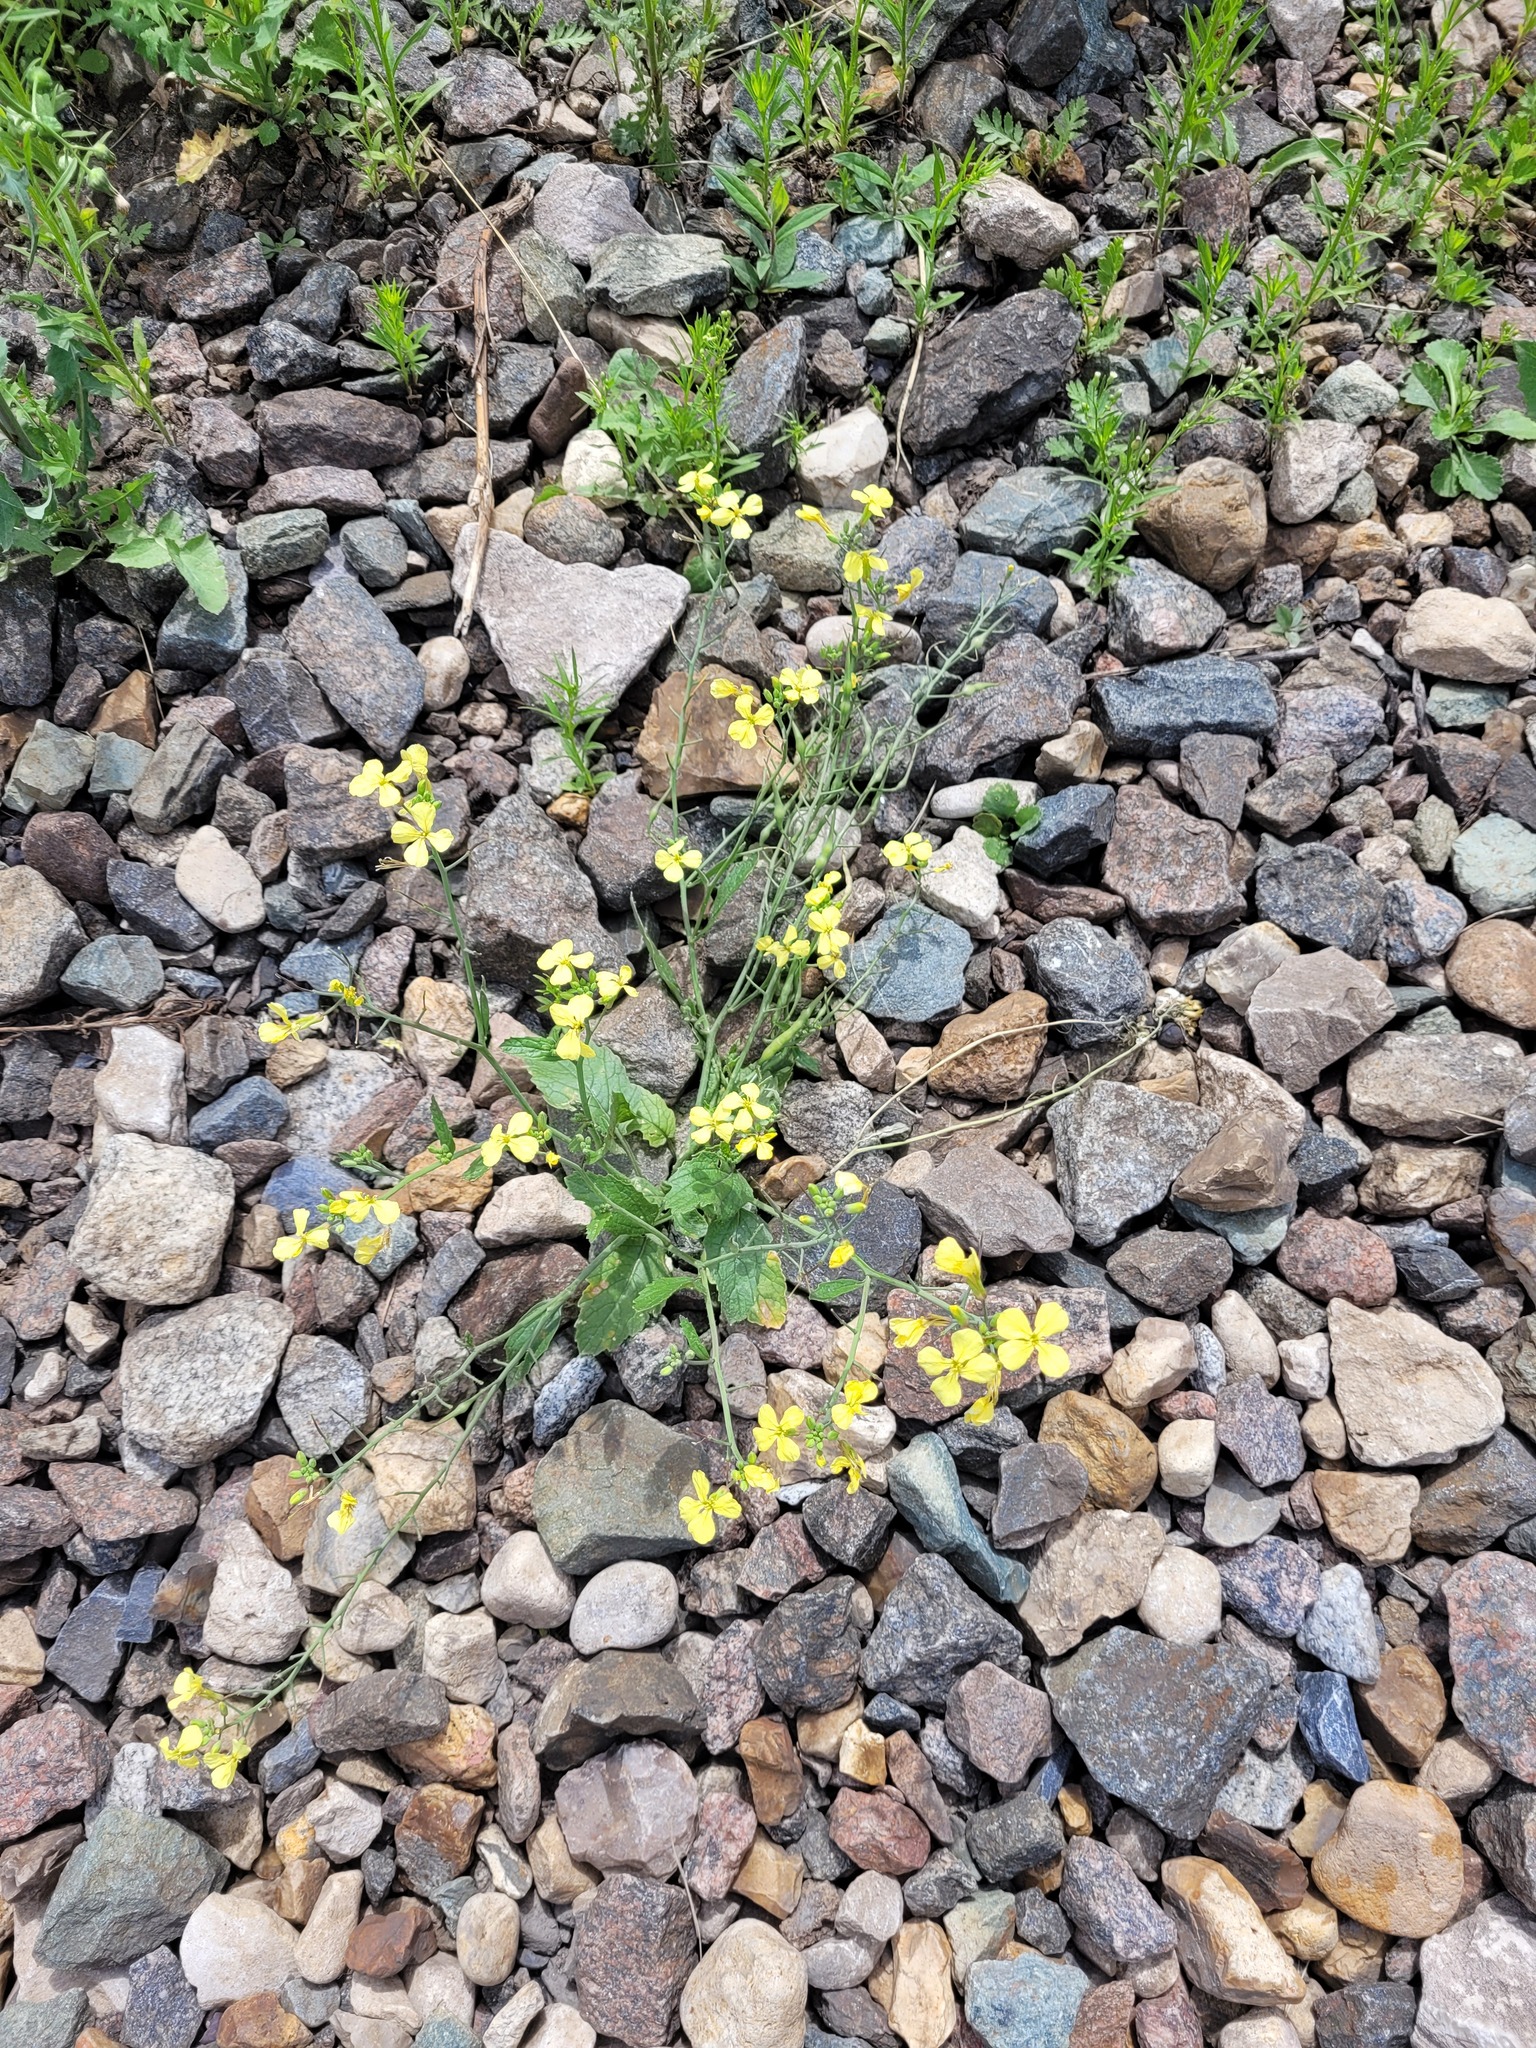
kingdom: Plantae
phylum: Tracheophyta
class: Magnoliopsida
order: Brassicales
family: Brassicaceae
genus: Raphanus
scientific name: Raphanus raphanistrum
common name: Wild radish
